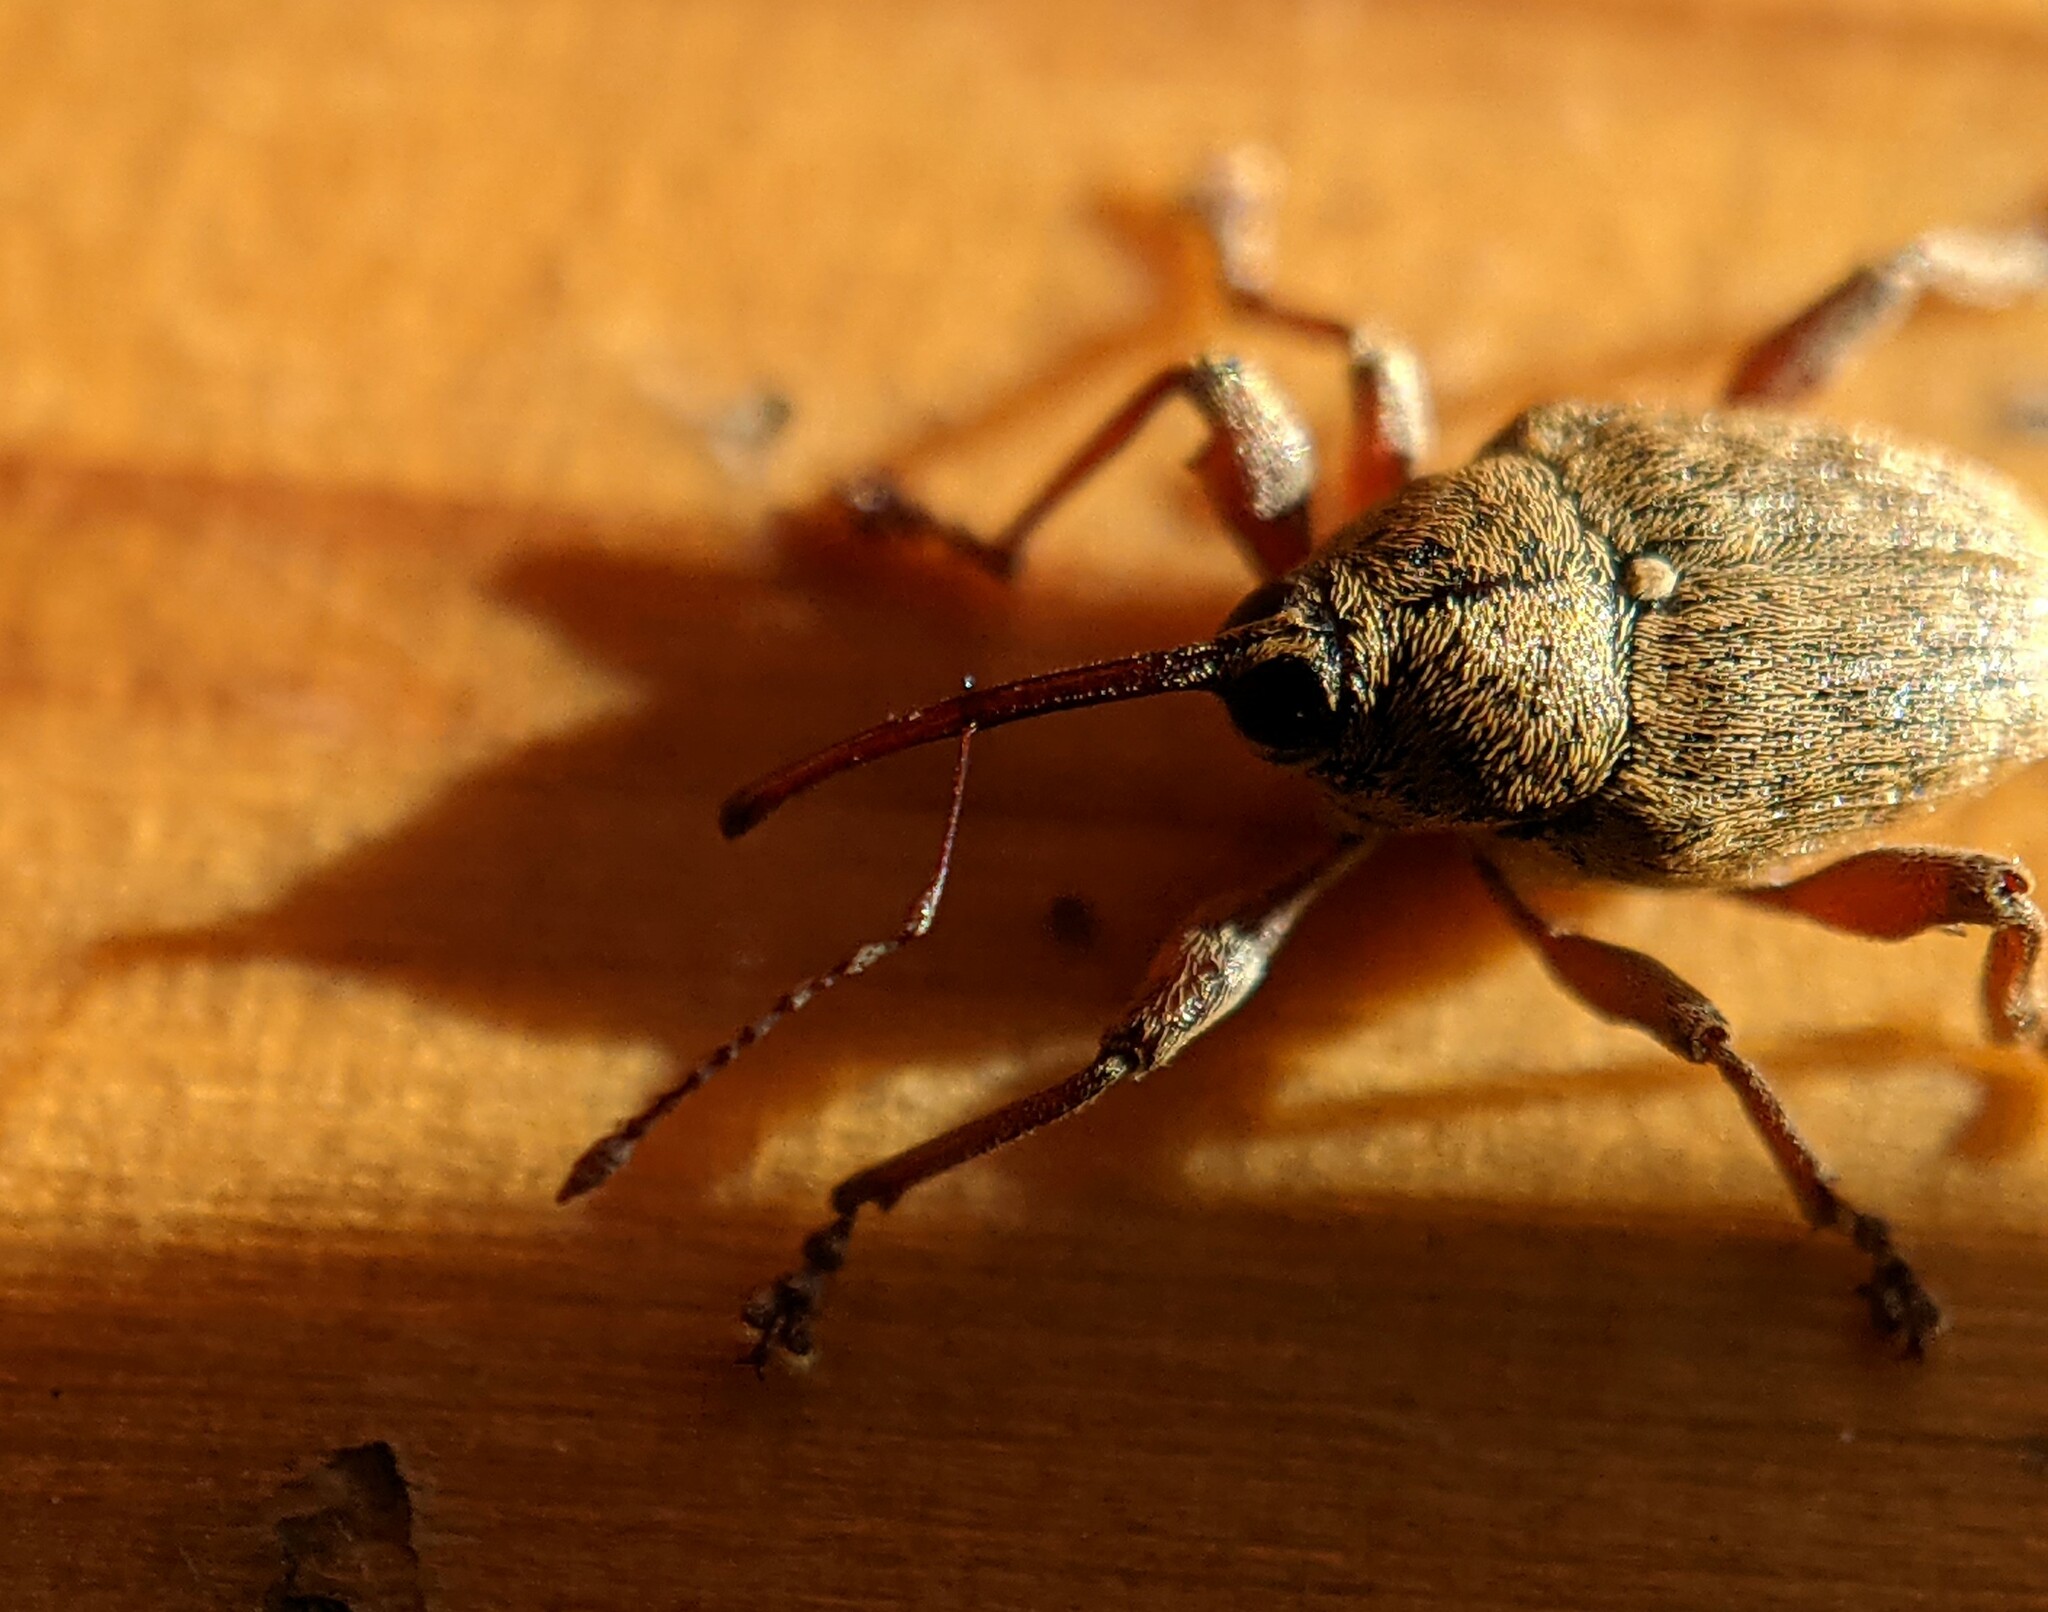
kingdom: Animalia
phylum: Arthropoda
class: Insecta
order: Coleoptera
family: Curculionidae
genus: Curculio
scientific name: Curculio nucum
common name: Nut weevil
